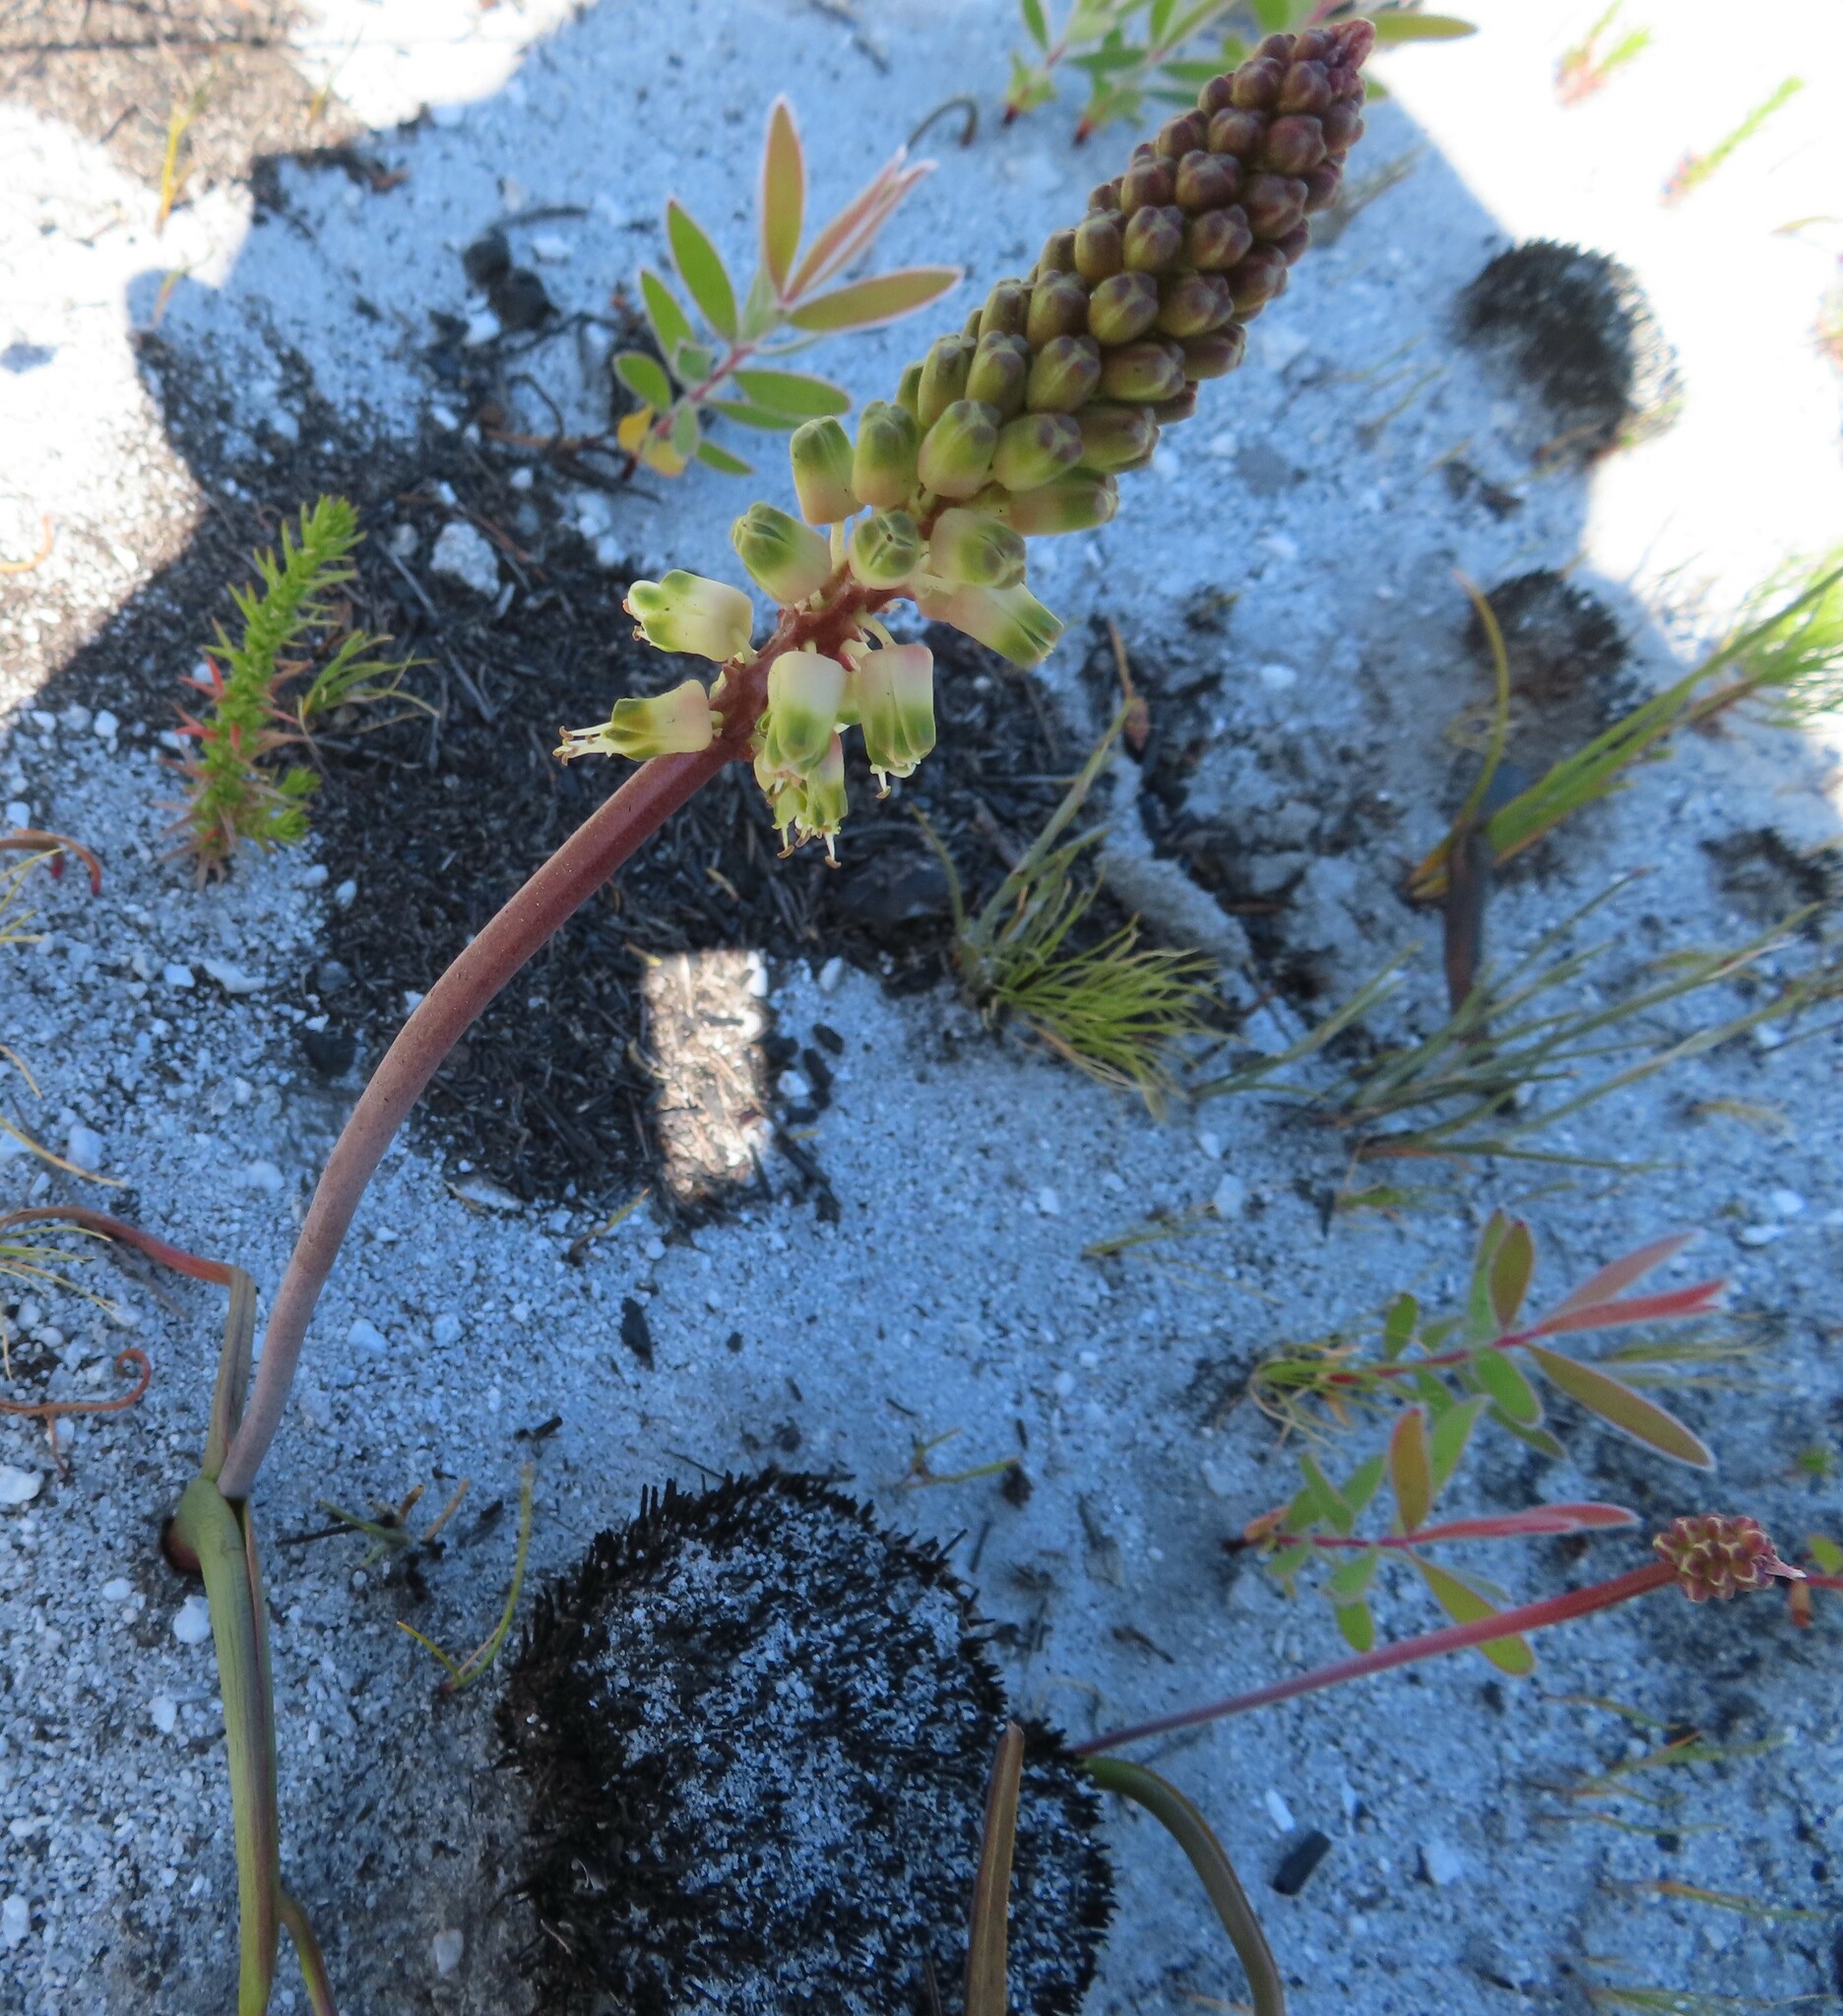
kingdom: Plantae
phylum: Tracheophyta
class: Liliopsida
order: Asparagales
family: Asparagaceae
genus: Lachenalia
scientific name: Lachenalia montana
